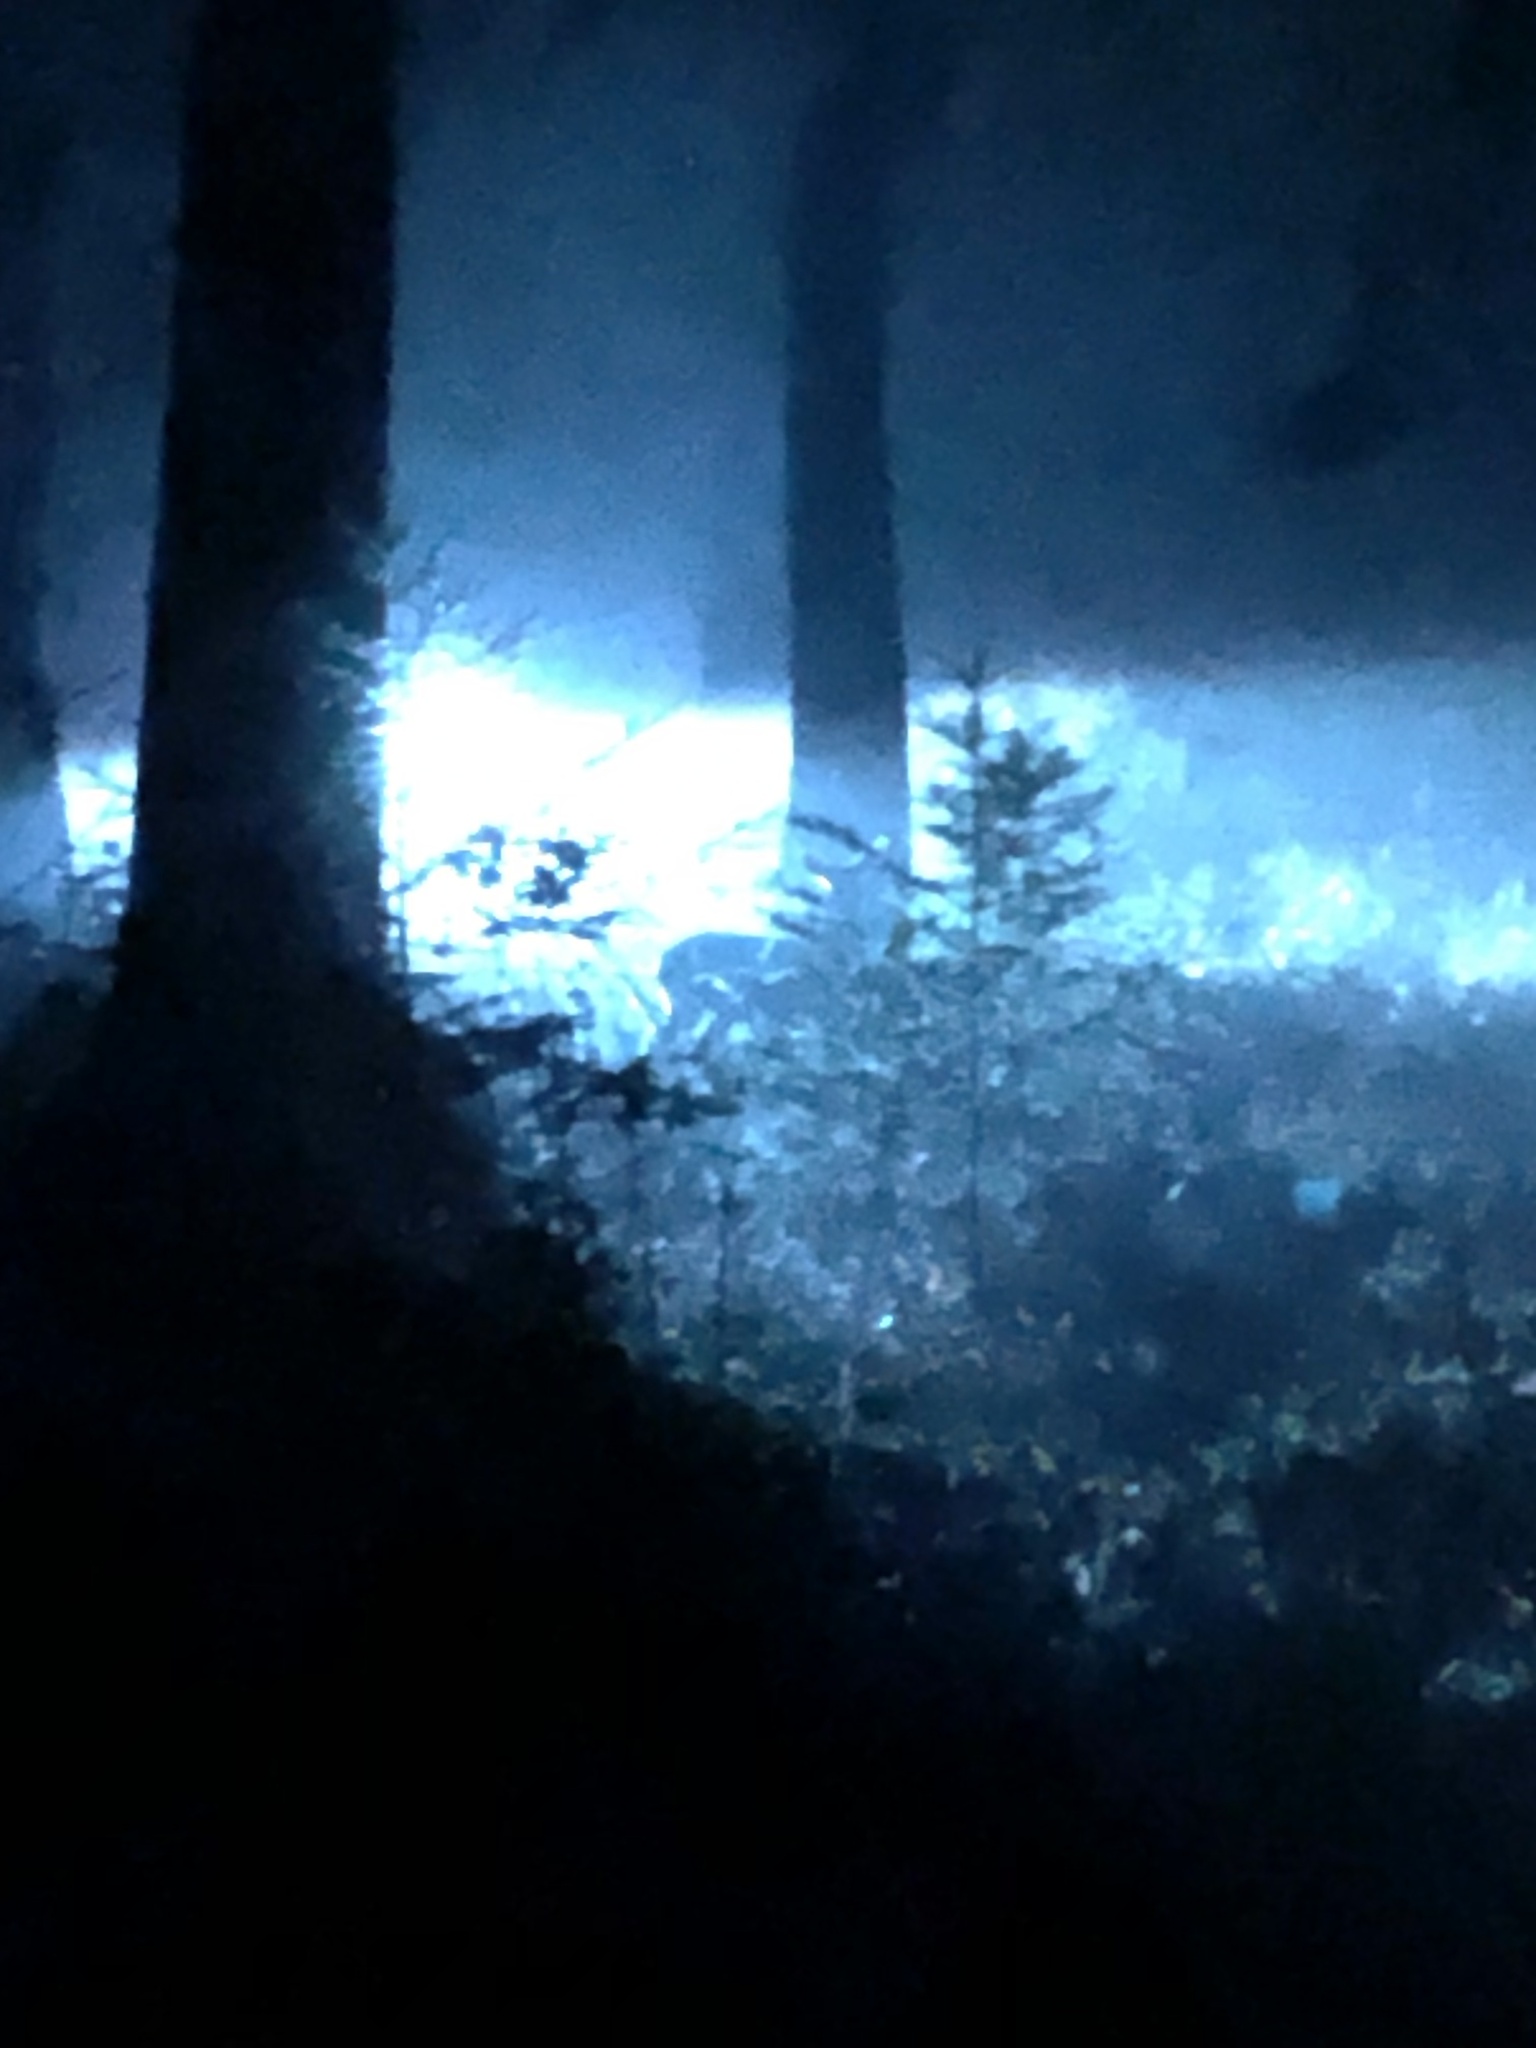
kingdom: Animalia
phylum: Chordata
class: Mammalia
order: Artiodactyla
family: Cervidae
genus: Odocoileus
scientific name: Odocoileus hemionus
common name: Mule deer
